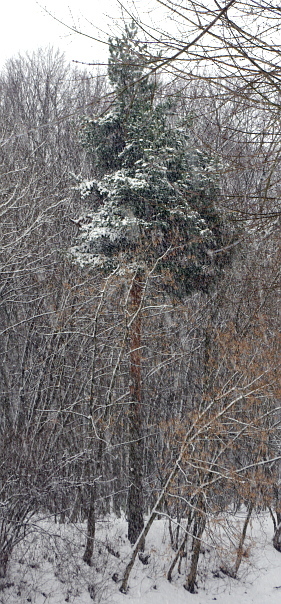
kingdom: Plantae
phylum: Tracheophyta
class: Pinopsida
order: Pinales
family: Pinaceae
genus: Pinus
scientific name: Pinus sylvestris
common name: Scots pine
